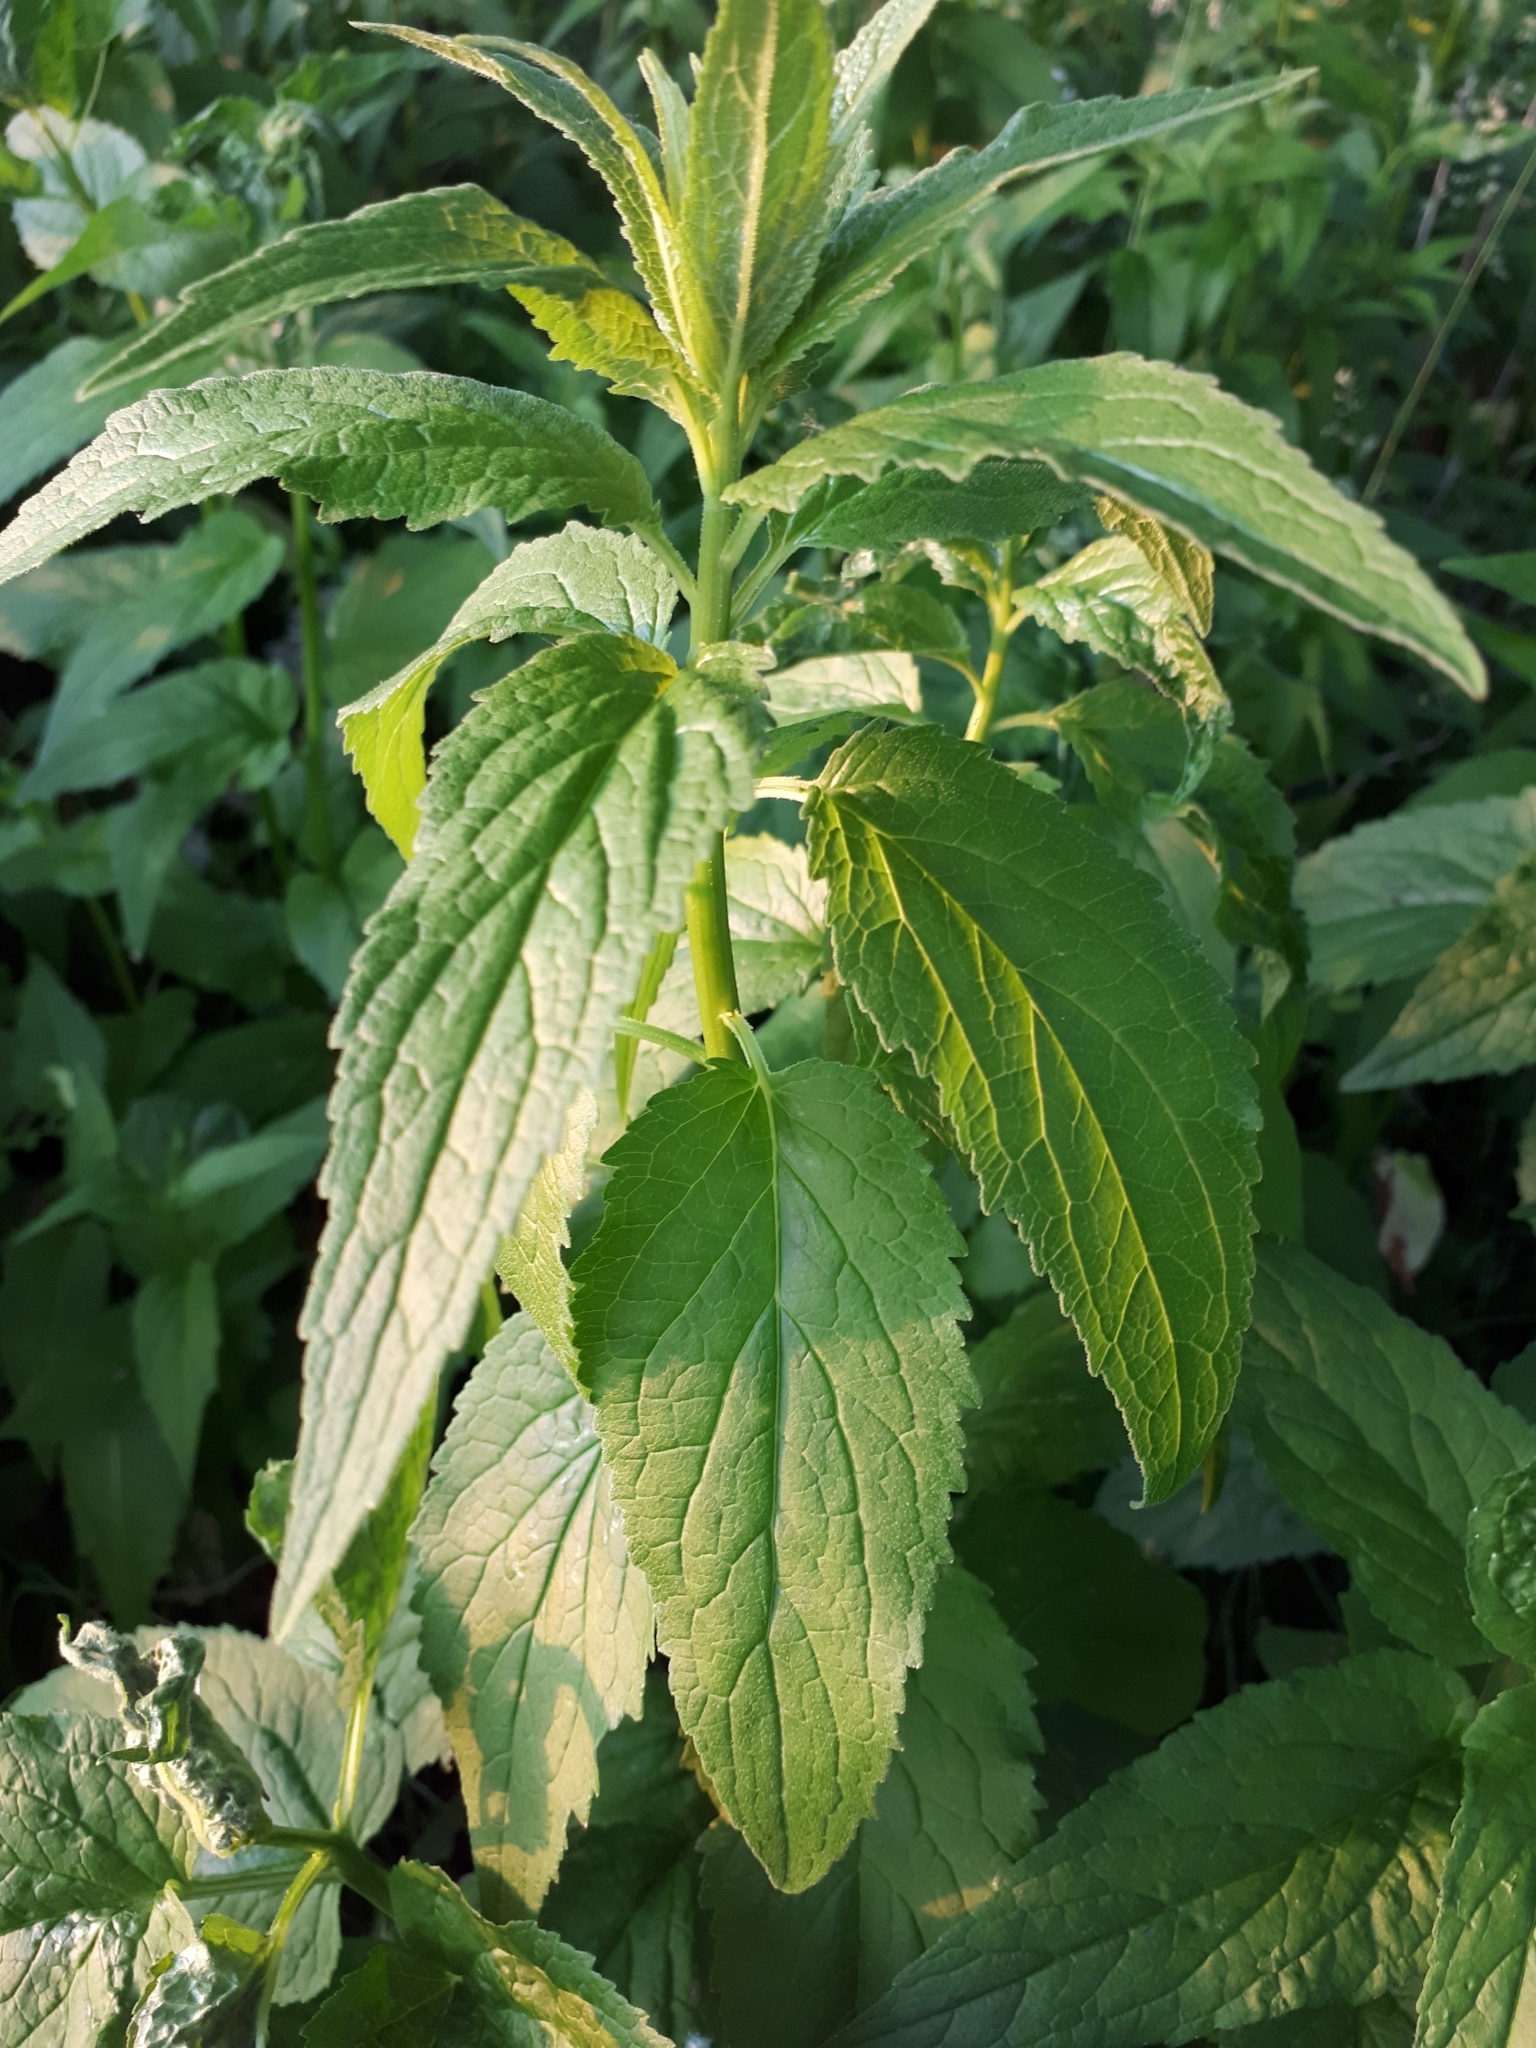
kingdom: Plantae
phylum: Tracheophyta
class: Magnoliopsida
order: Asterales
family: Campanulaceae
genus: Adenophora
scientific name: Adenophora liliifolia
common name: Lilyleaf ladybells
